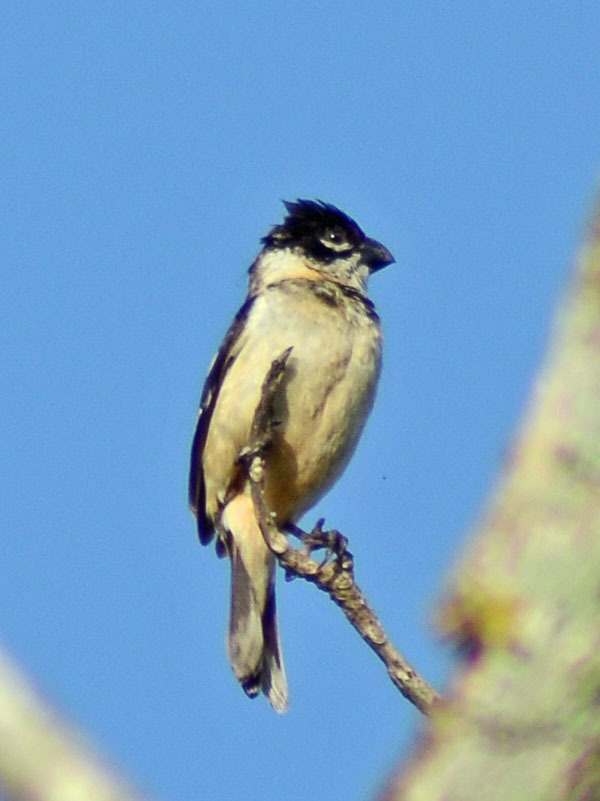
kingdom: Animalia
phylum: Chordata
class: Aves
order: Passeriformes
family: Thraupidae
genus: Sporophila
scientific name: Sporophila morelleti
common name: Morelet's seedeater
